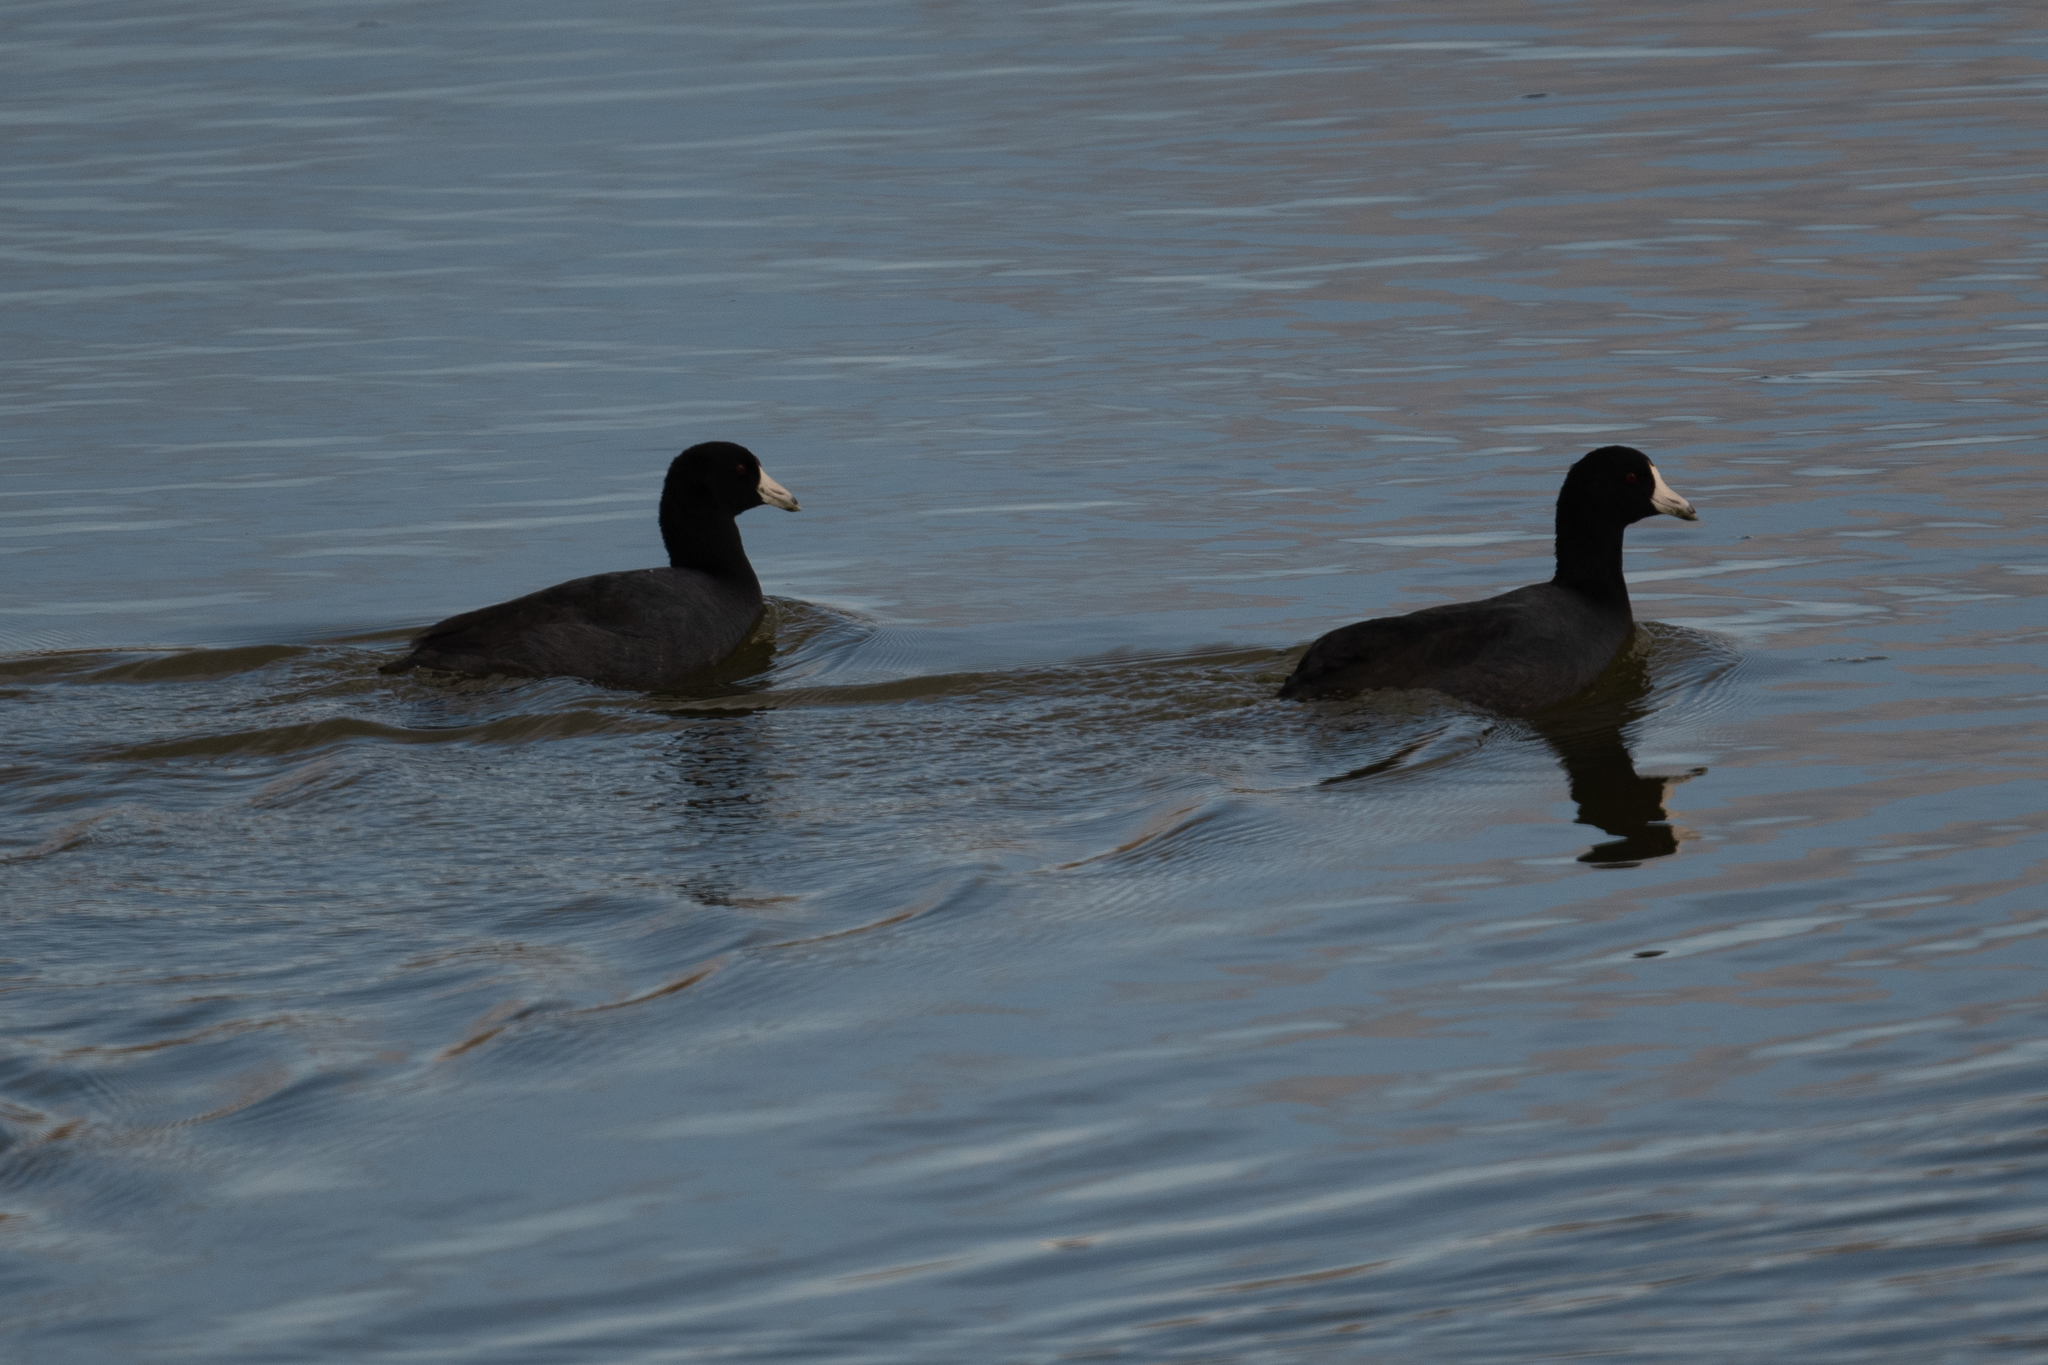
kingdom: Animalia
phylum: Chordata
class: Aves
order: Gruiformes
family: Rallidae
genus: Fulica
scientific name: Fulica americana
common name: American coot
